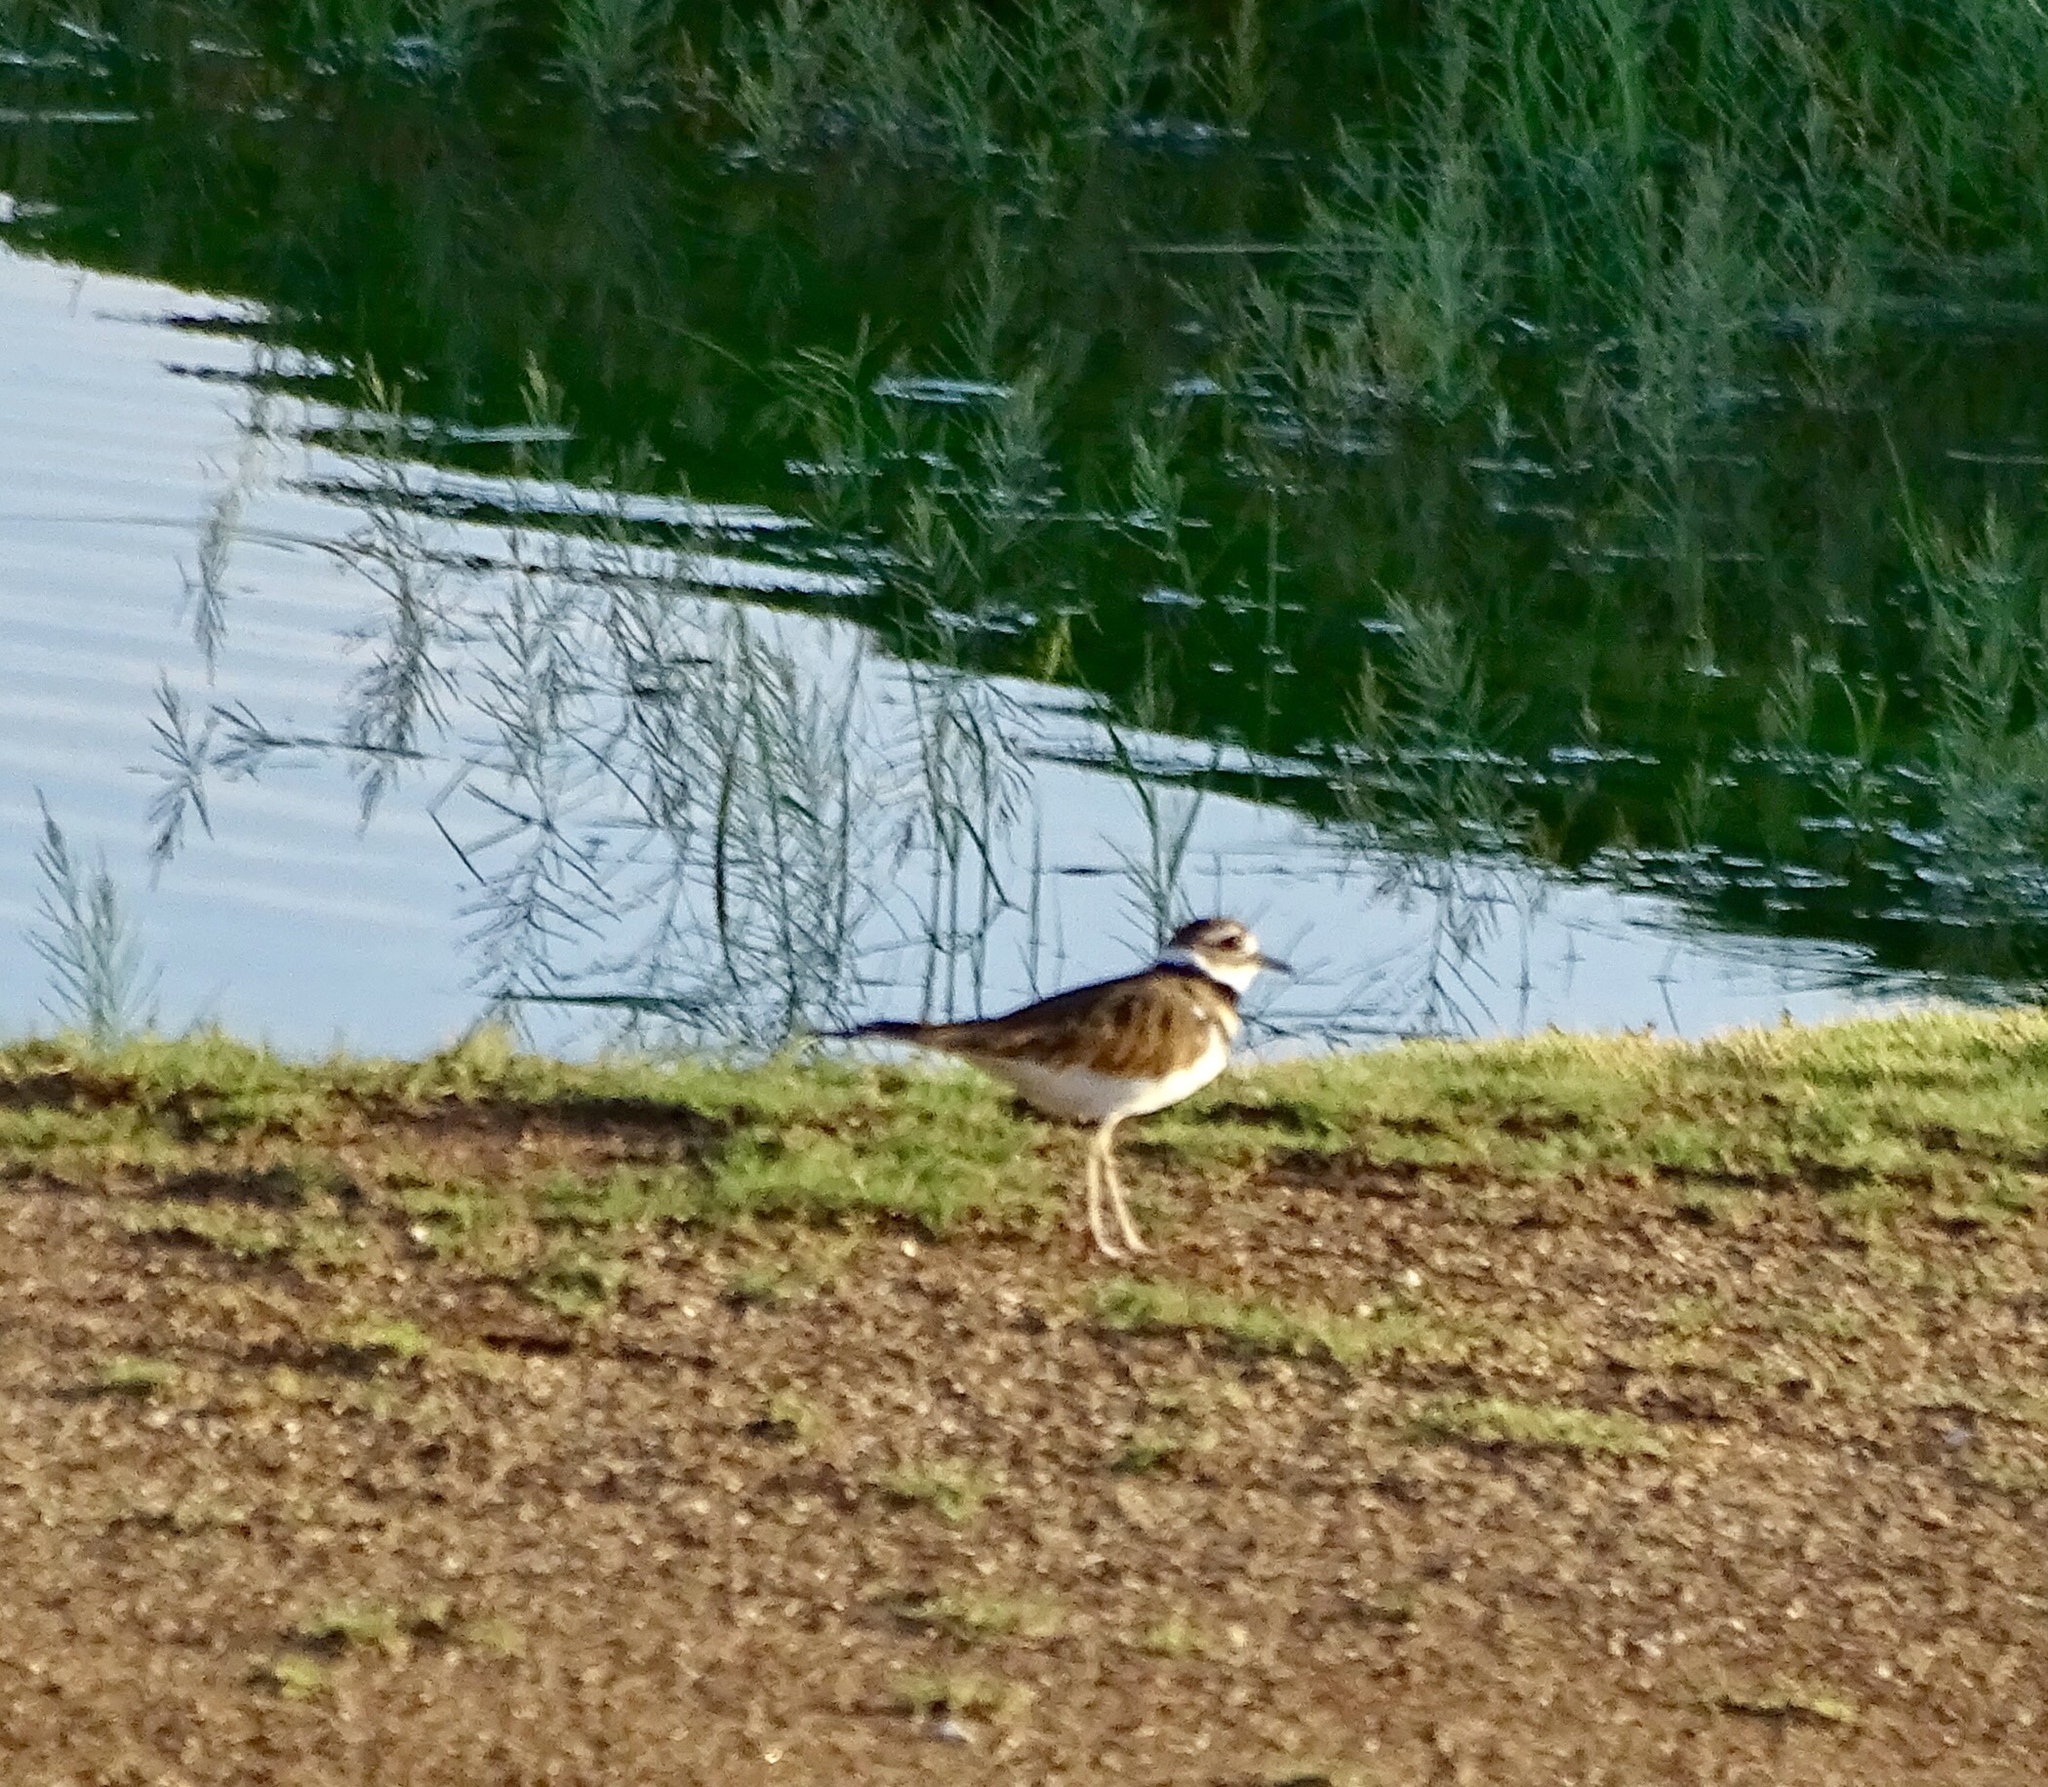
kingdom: Animalia
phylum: Chordata
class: Aves
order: Charadriiformes
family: Charadriidae
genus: Charadrius
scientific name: Charadrius vociferus
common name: Killdeer
